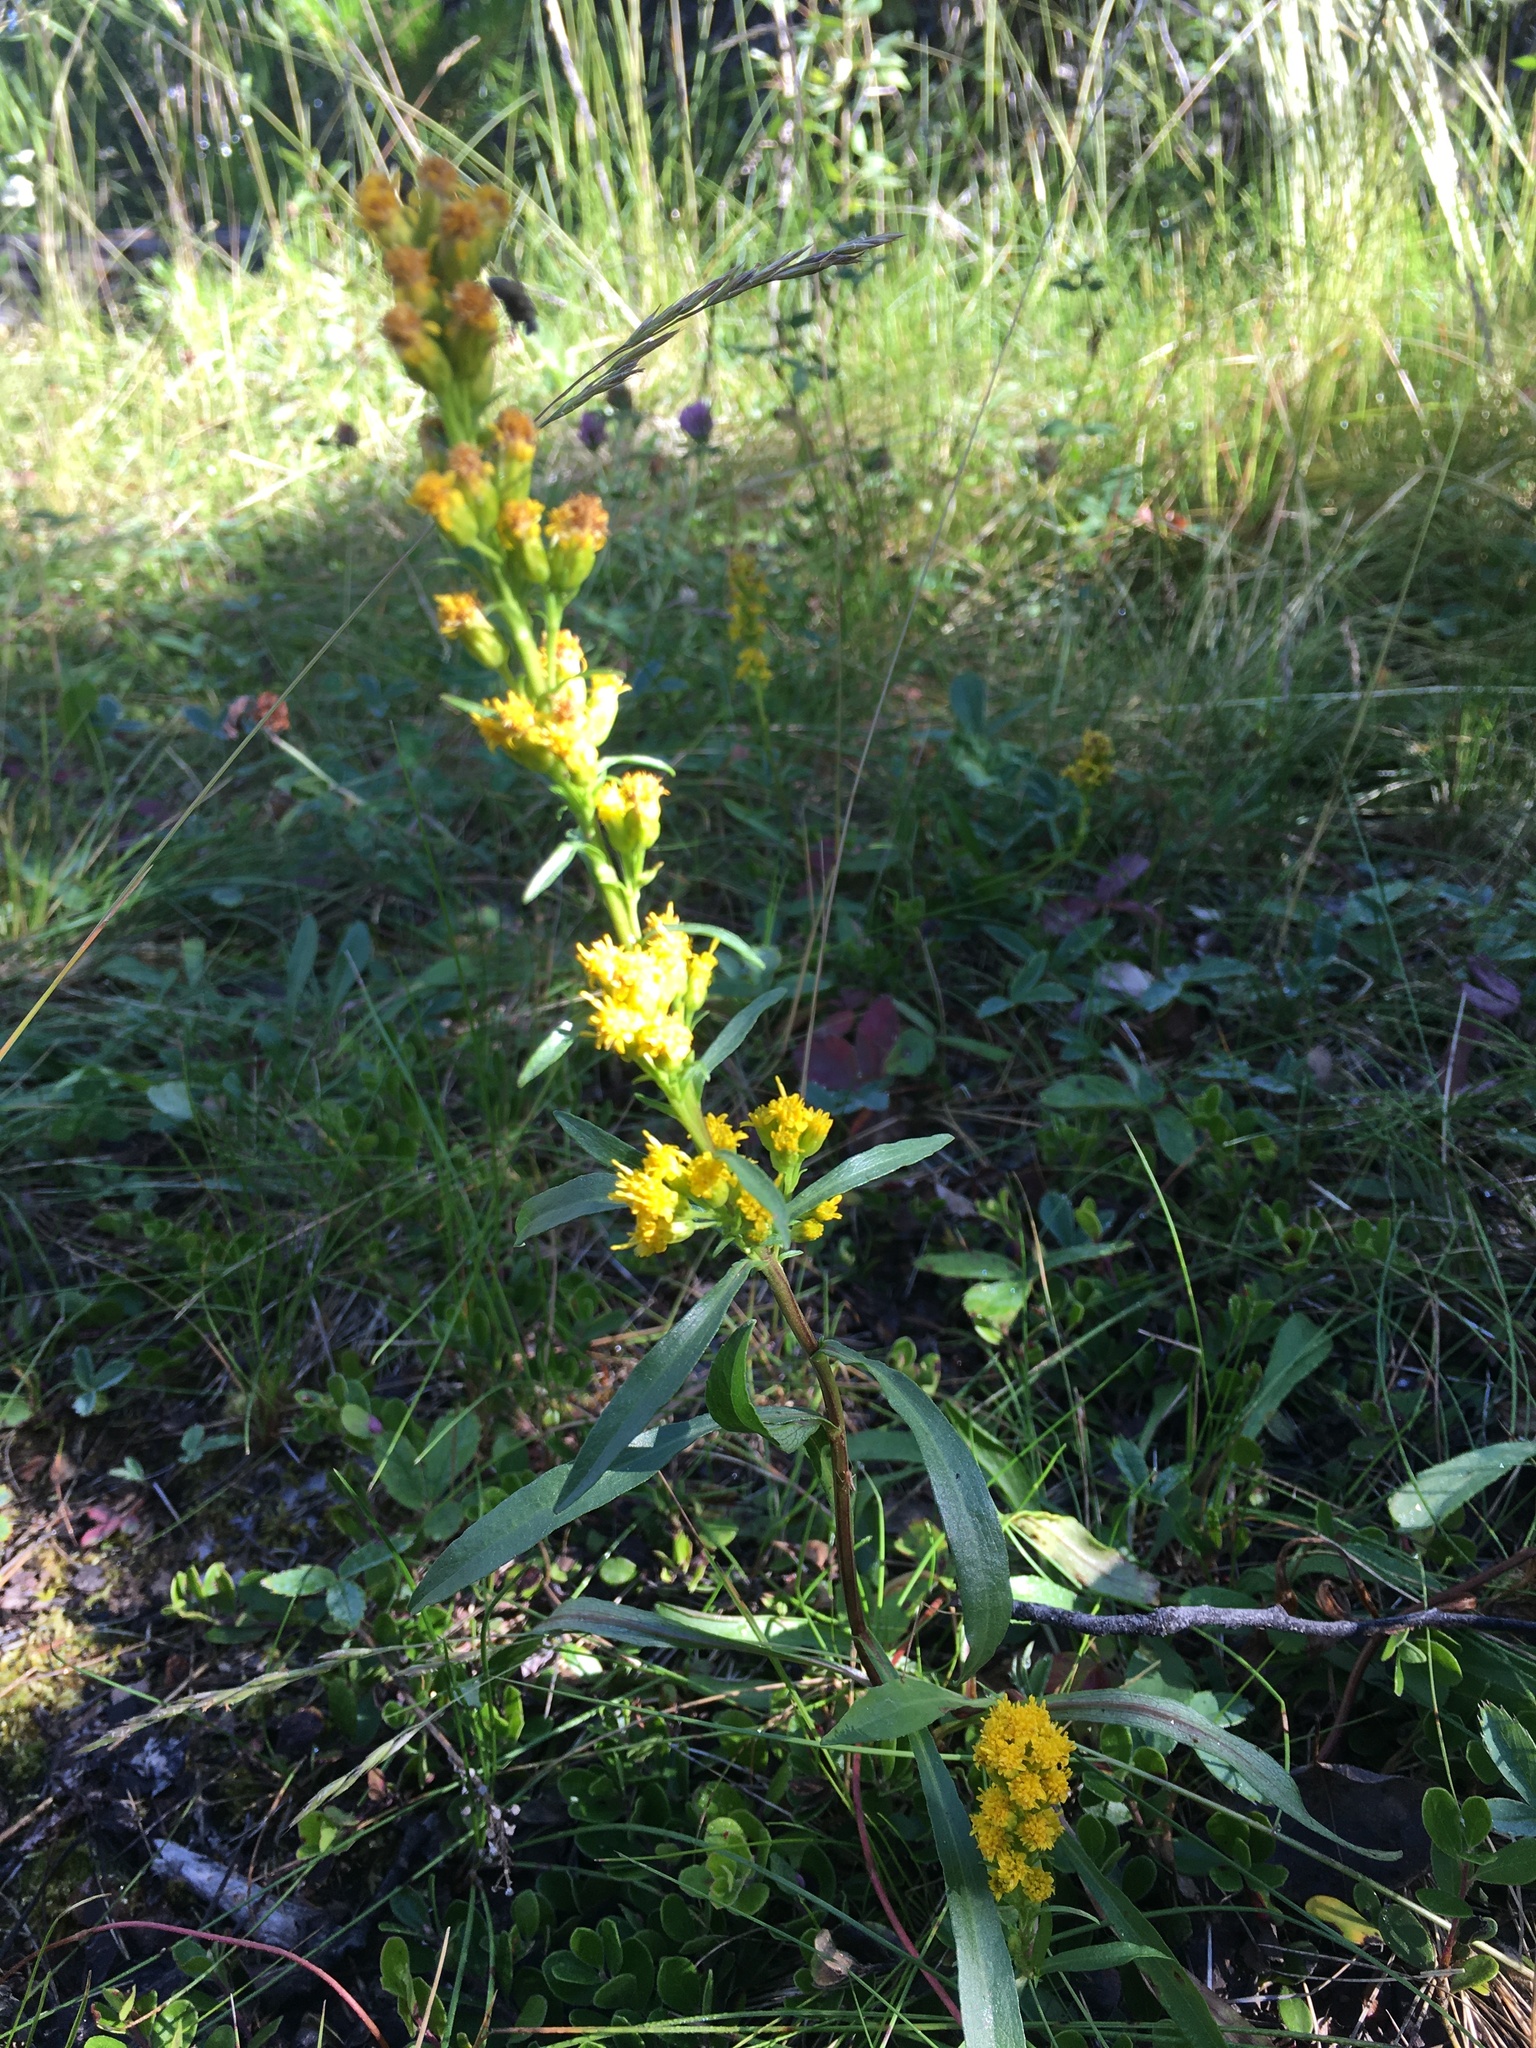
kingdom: Plantae
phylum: Tracheophyta
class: Magnoliopsida
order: Asterales
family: Asteraceae
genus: Solidago
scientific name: Solidago glutinosa
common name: Decumbent goldenrod
